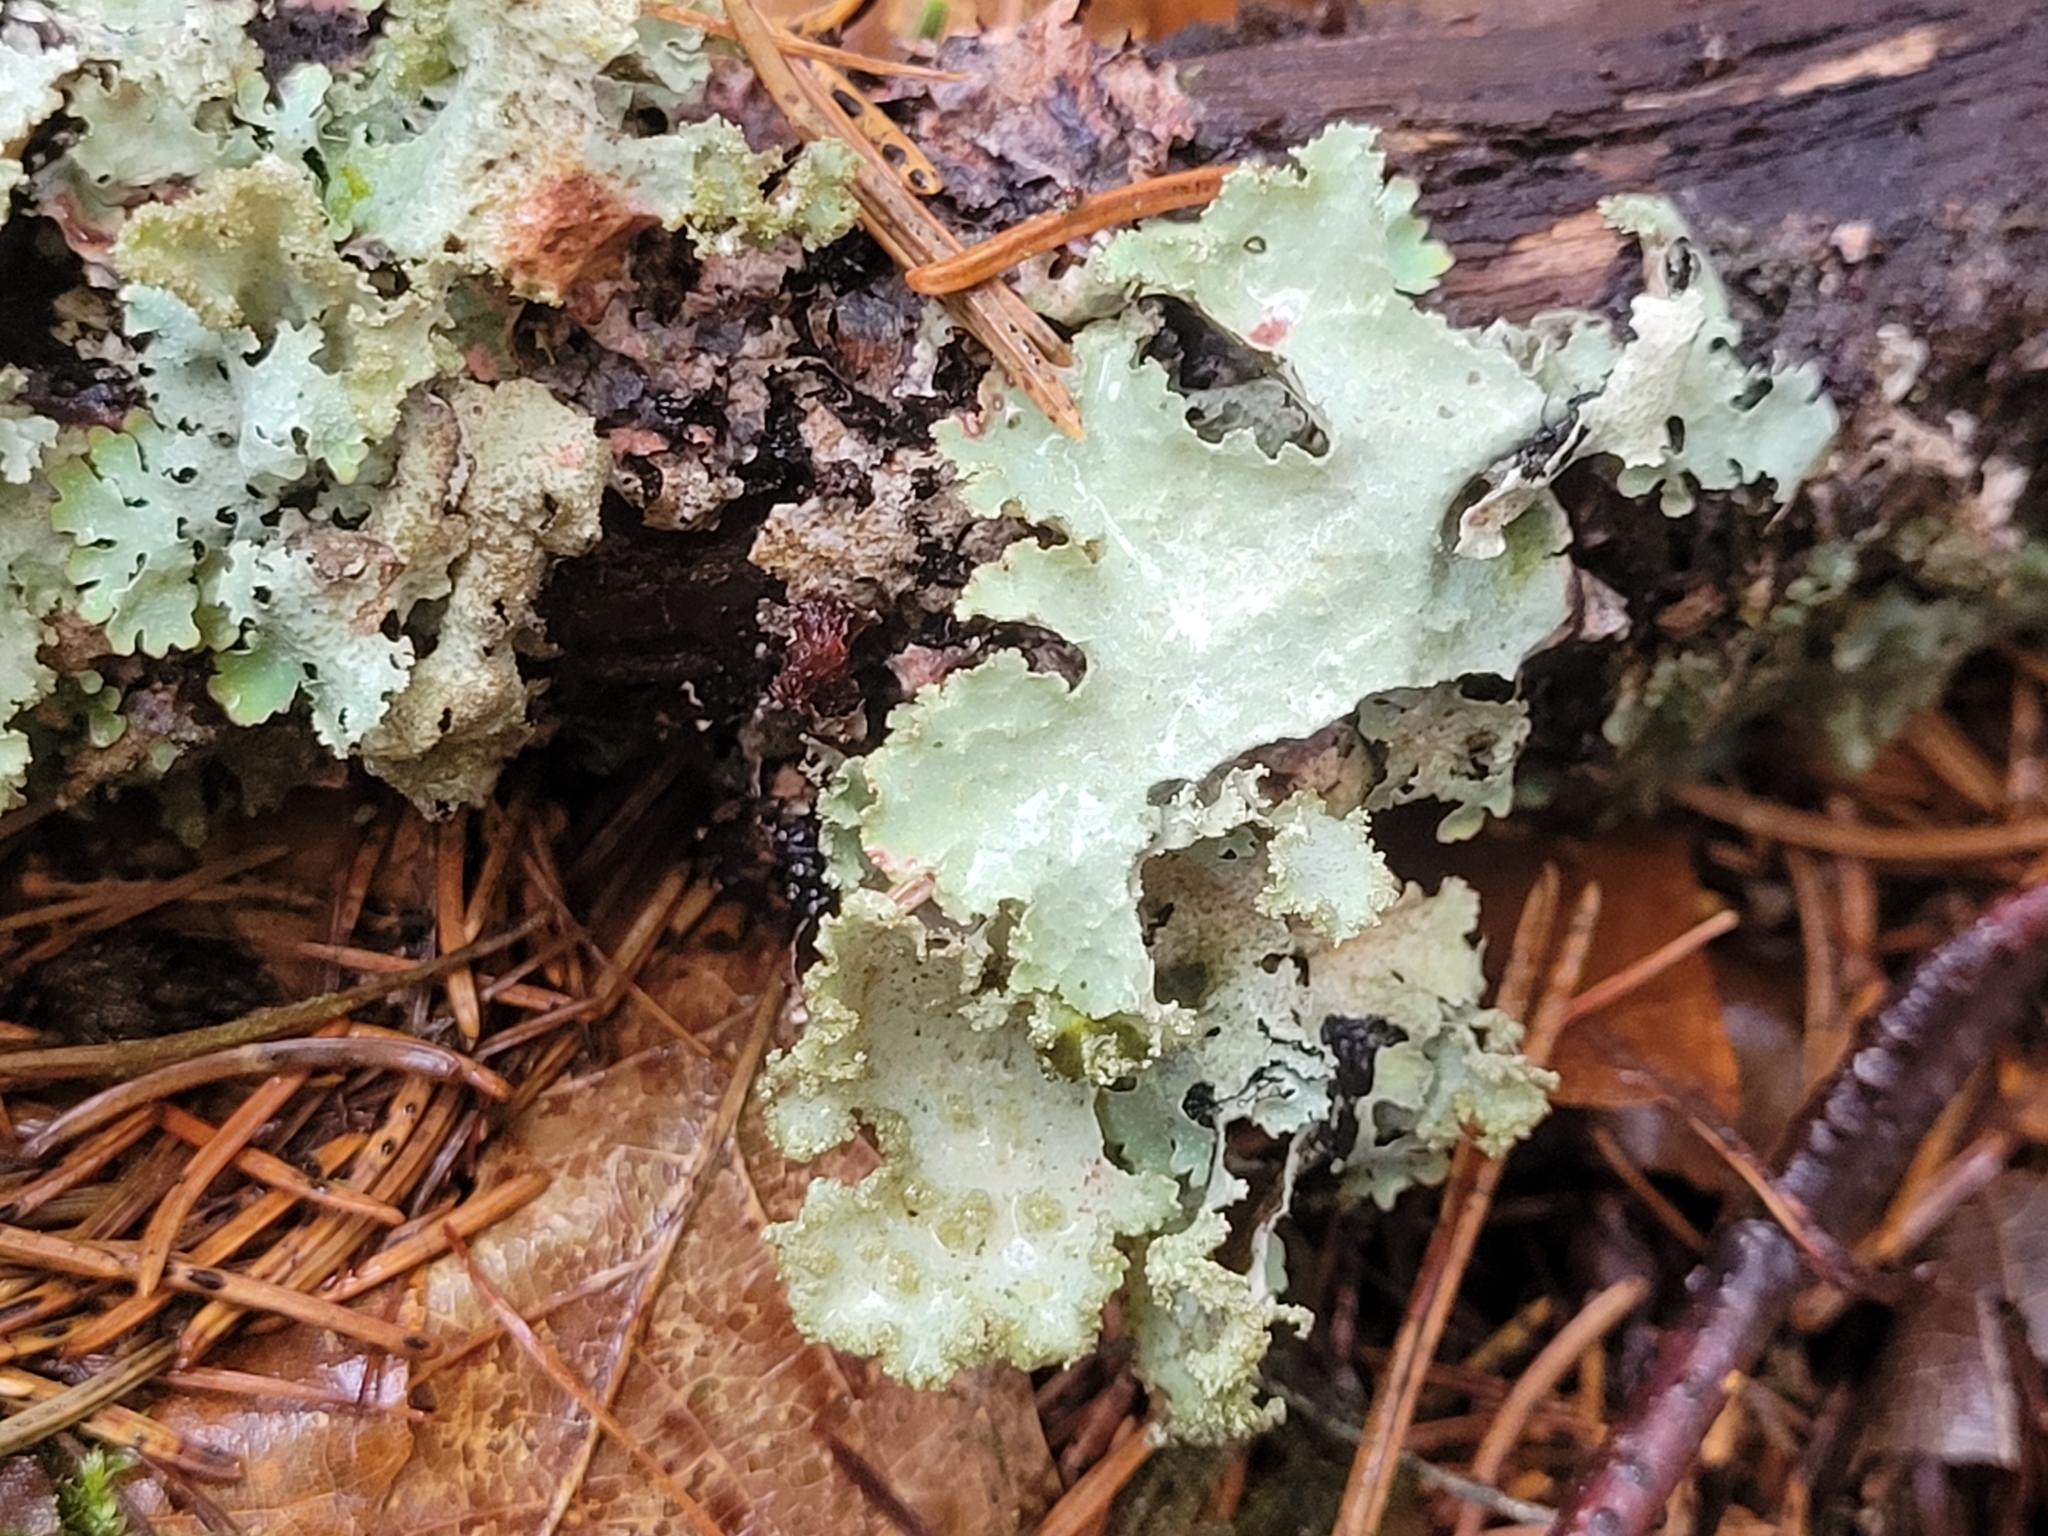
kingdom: Fungi
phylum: Ascomycota
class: Lecanoromycetes
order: Lecanorales
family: Parmeliaceae
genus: Platismatia
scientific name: Platismatia glauca
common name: Varied rag lichen
